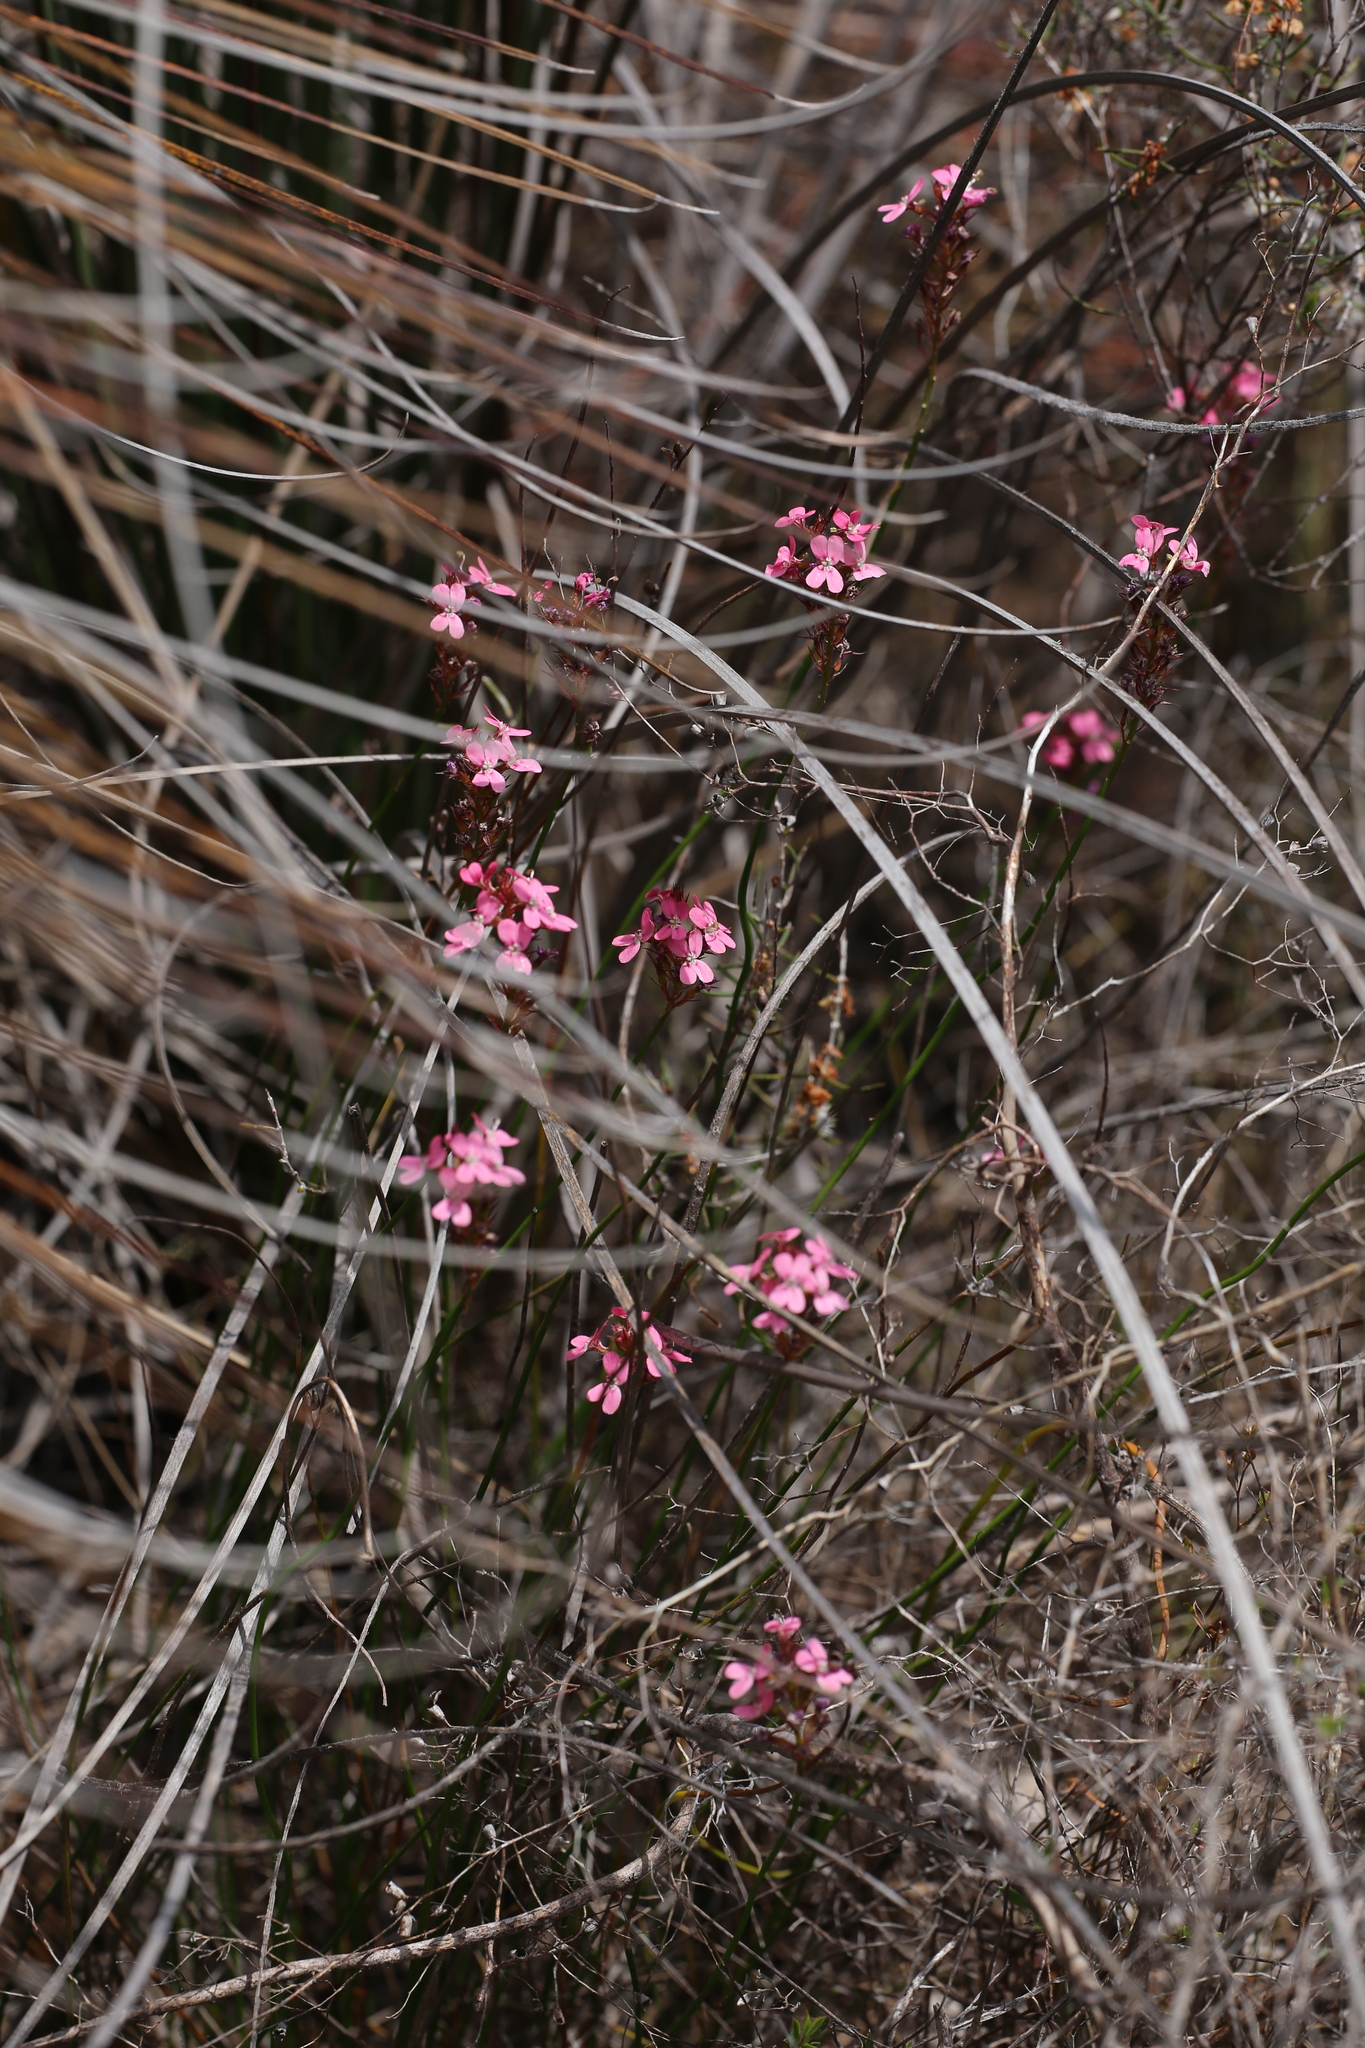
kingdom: Plantae
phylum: Tracheophyta
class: Magnoliopsida
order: Asterales
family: Stylidiaceae
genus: Stylidium
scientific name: Stylidium paludicola
